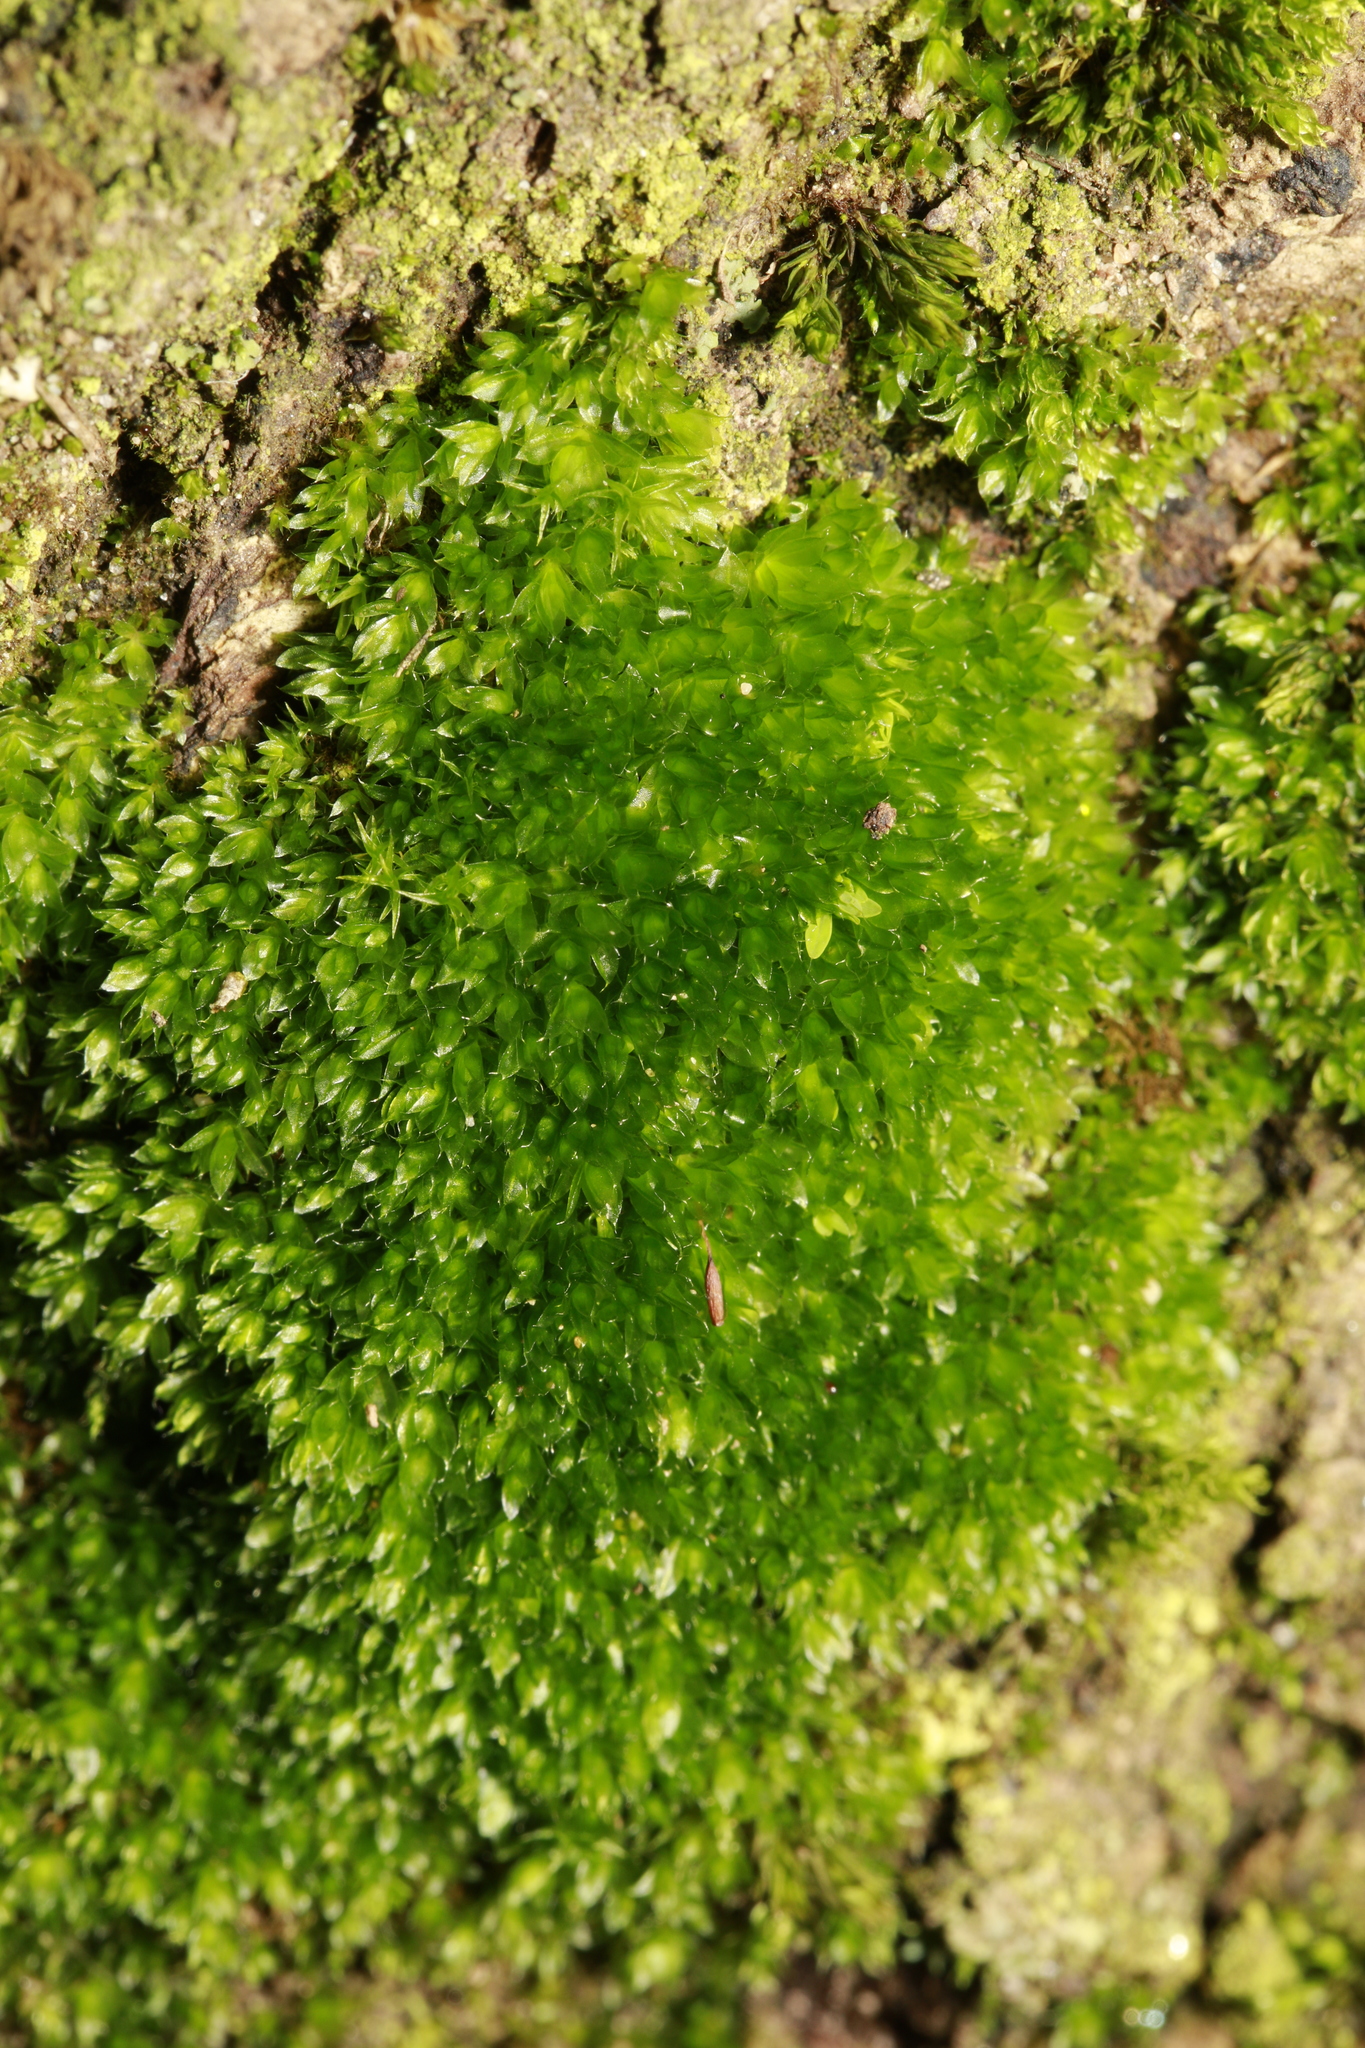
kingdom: Plantae
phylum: Bryophyta
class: Bryopsida
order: Bryales
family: Bryaceae
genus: Rosulabryum
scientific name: Rosulabryum capillare
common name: Capillary thread-moss
